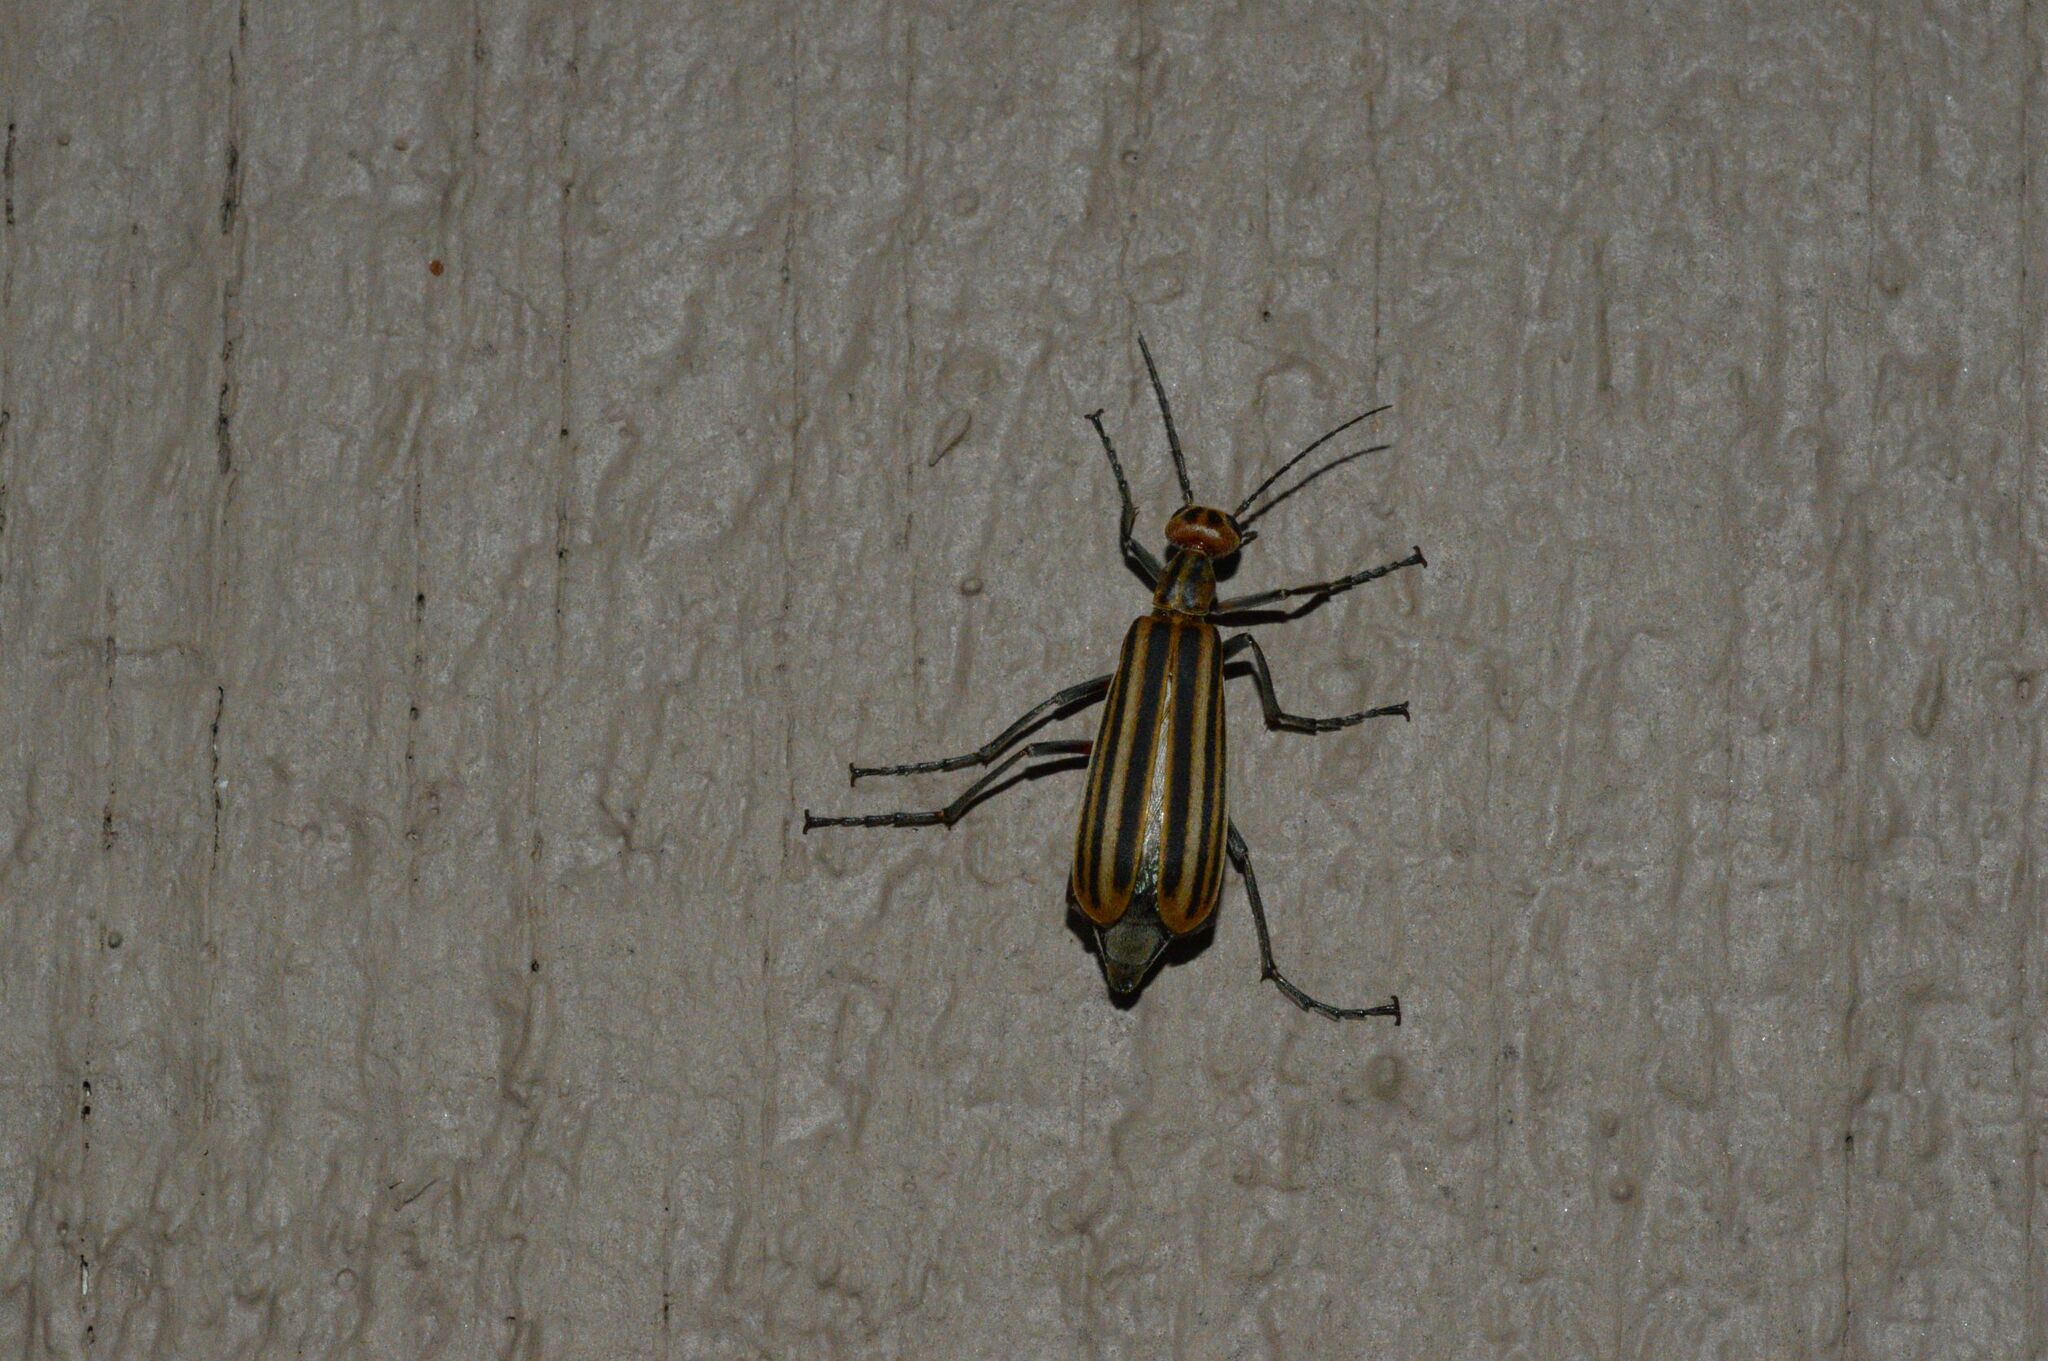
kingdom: Animalia
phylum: Arthropoda
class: Insecta
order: Coleoptera
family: Meloidae
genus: Epicauta
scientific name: Epicauta vittata
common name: Old-fashioned potato beetle
